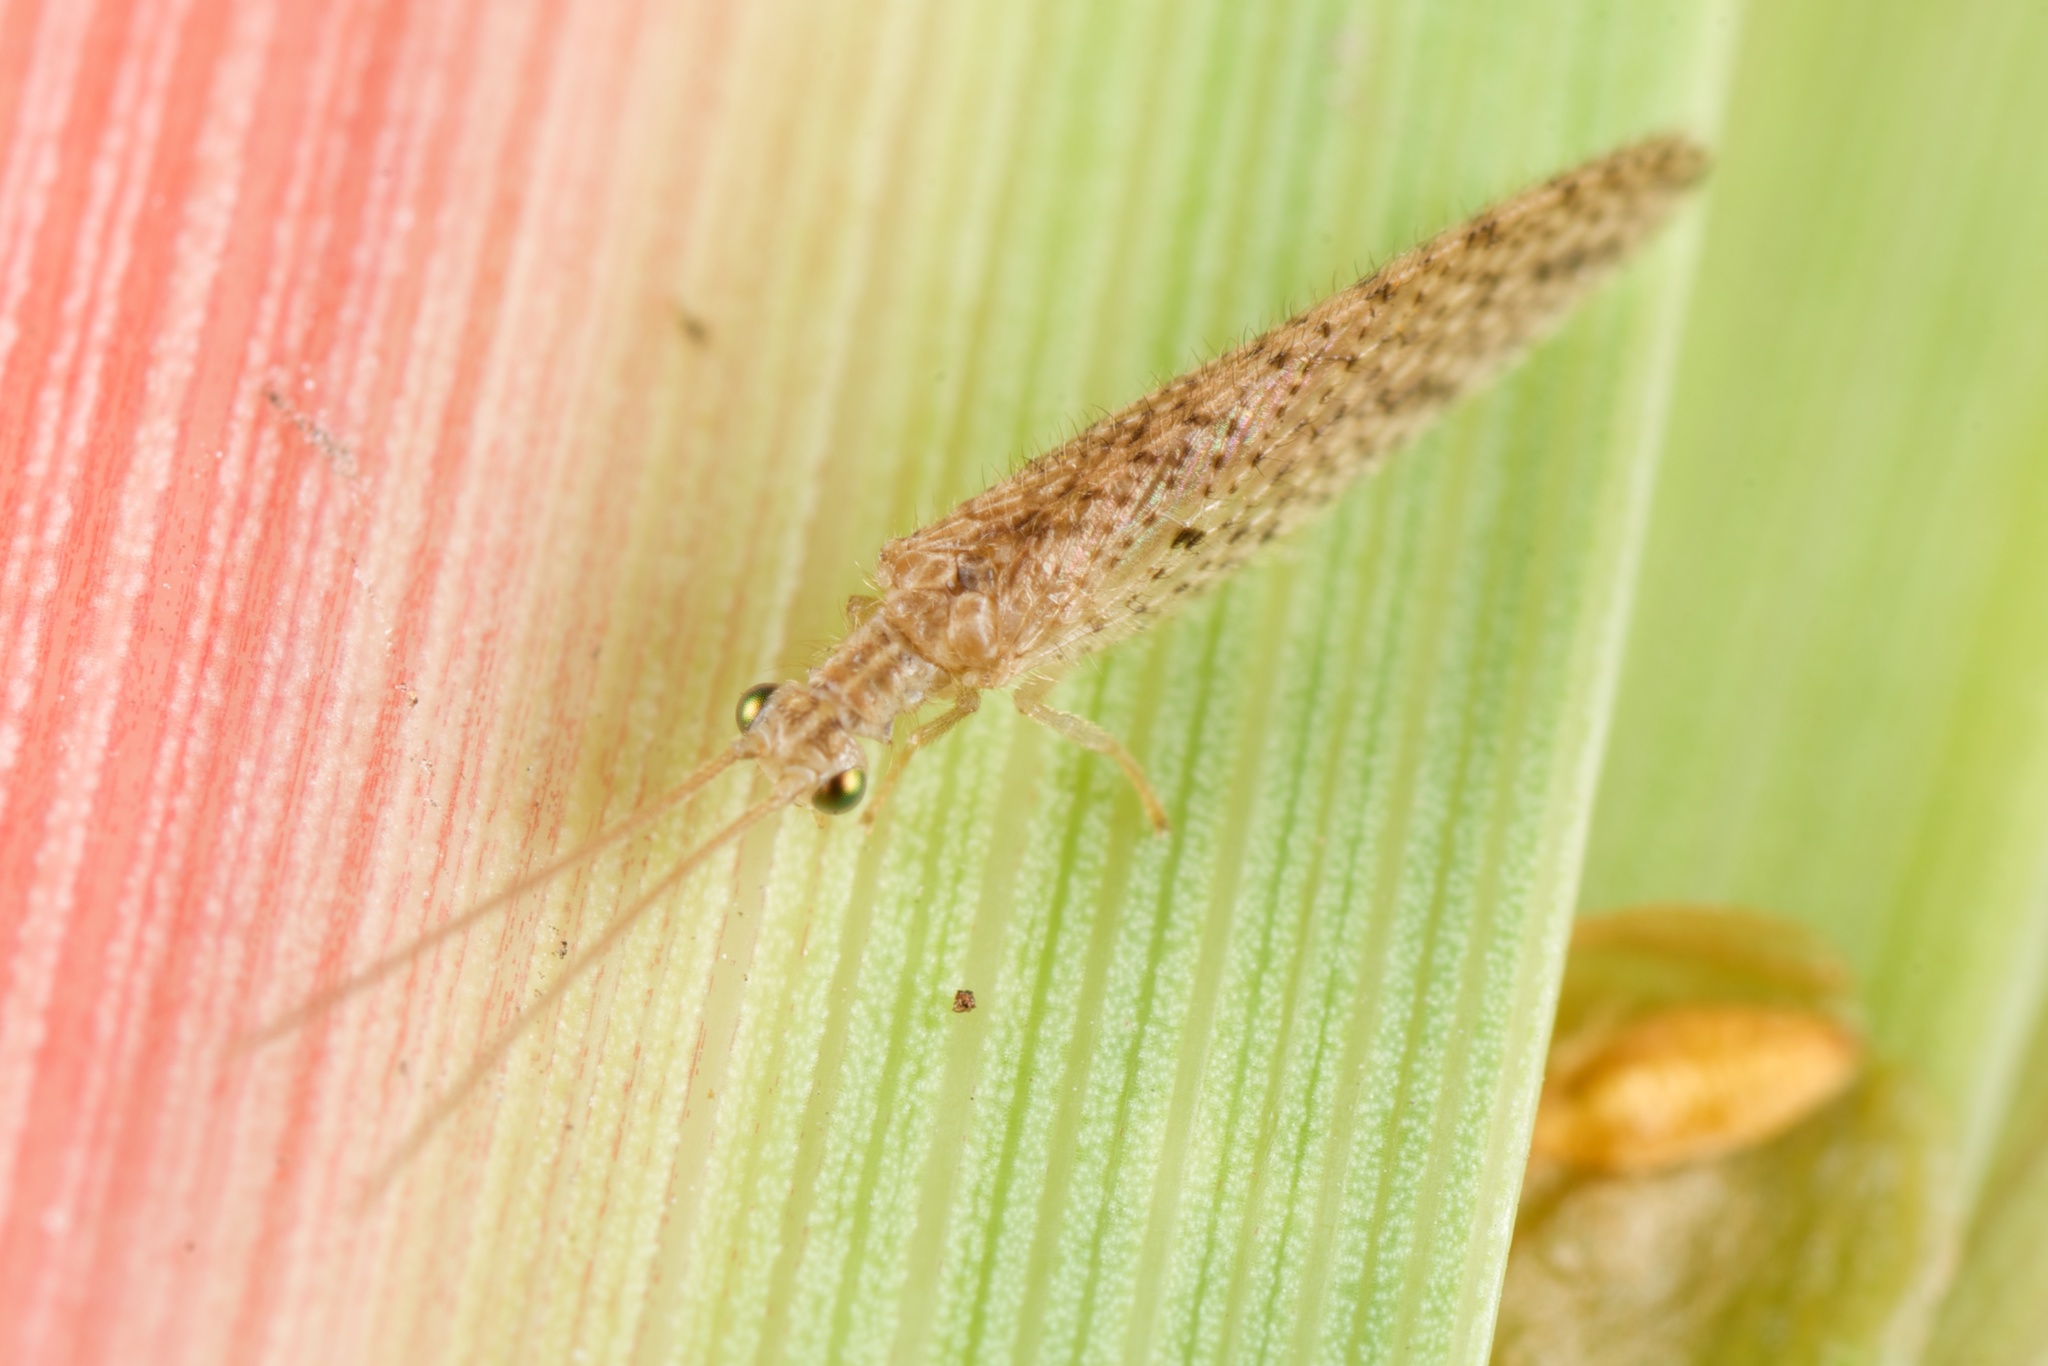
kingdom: Animalia
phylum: Arthropoda
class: Insecta
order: Neuroptera
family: Hemerobiidae
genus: Micromus
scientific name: Micromus tasmaniae
